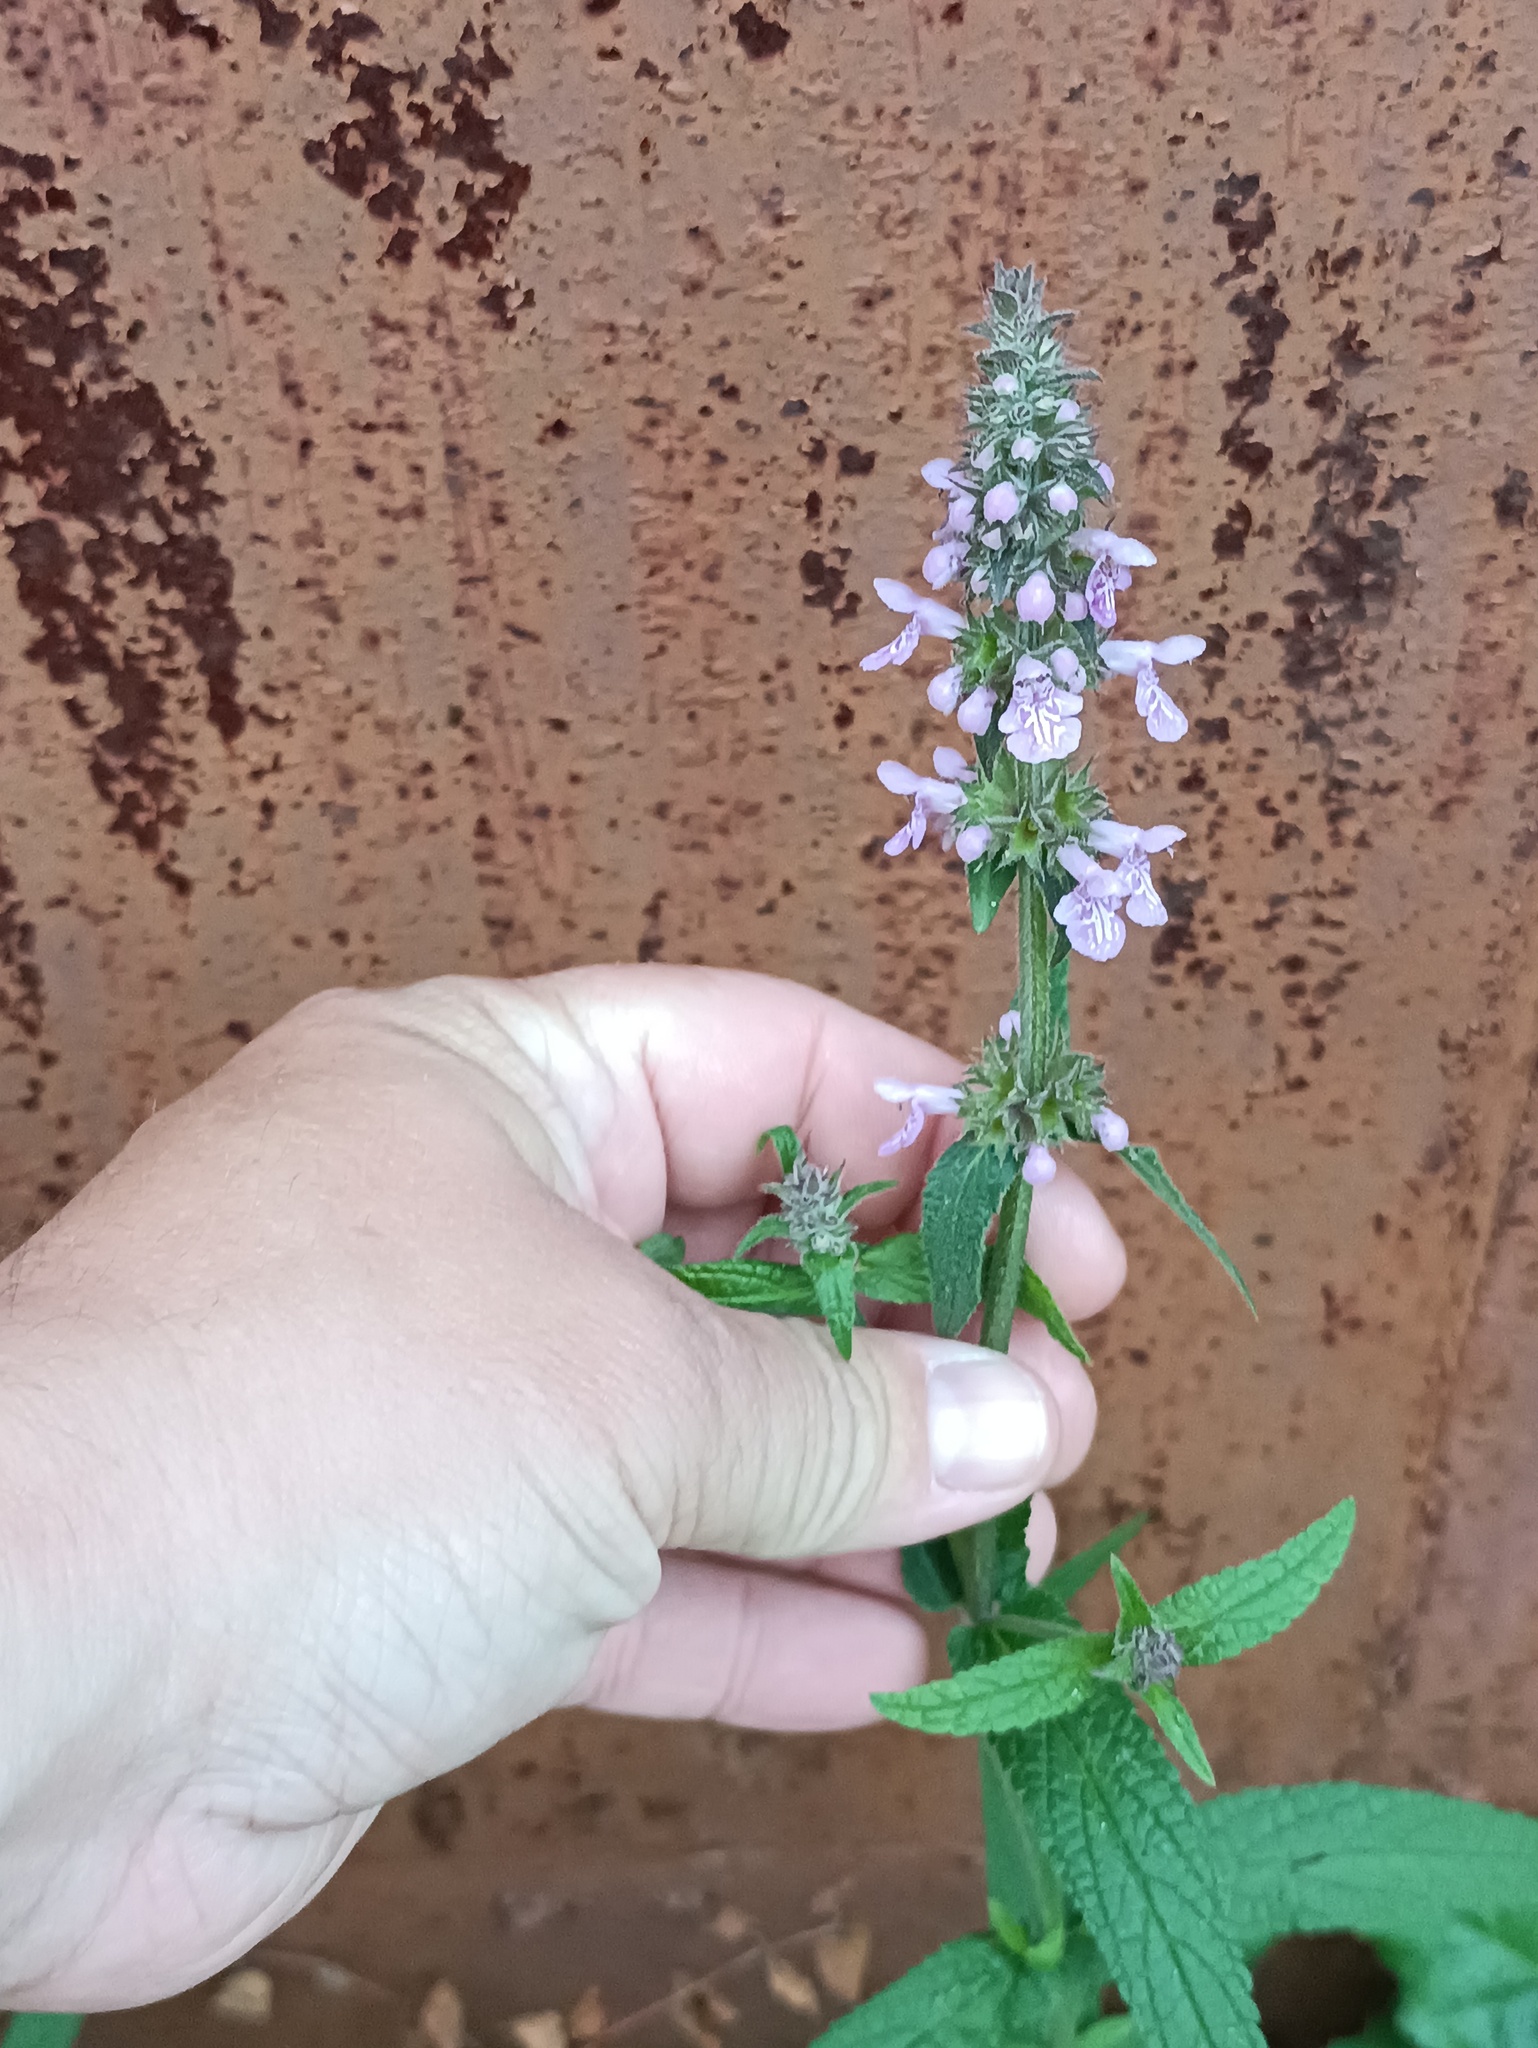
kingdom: Plantae
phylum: Tracheophyta
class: Magnoliopsida
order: Lamiales
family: Lamiaceae
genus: Stachys
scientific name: Stachys palustris
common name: Marsh woundwort
